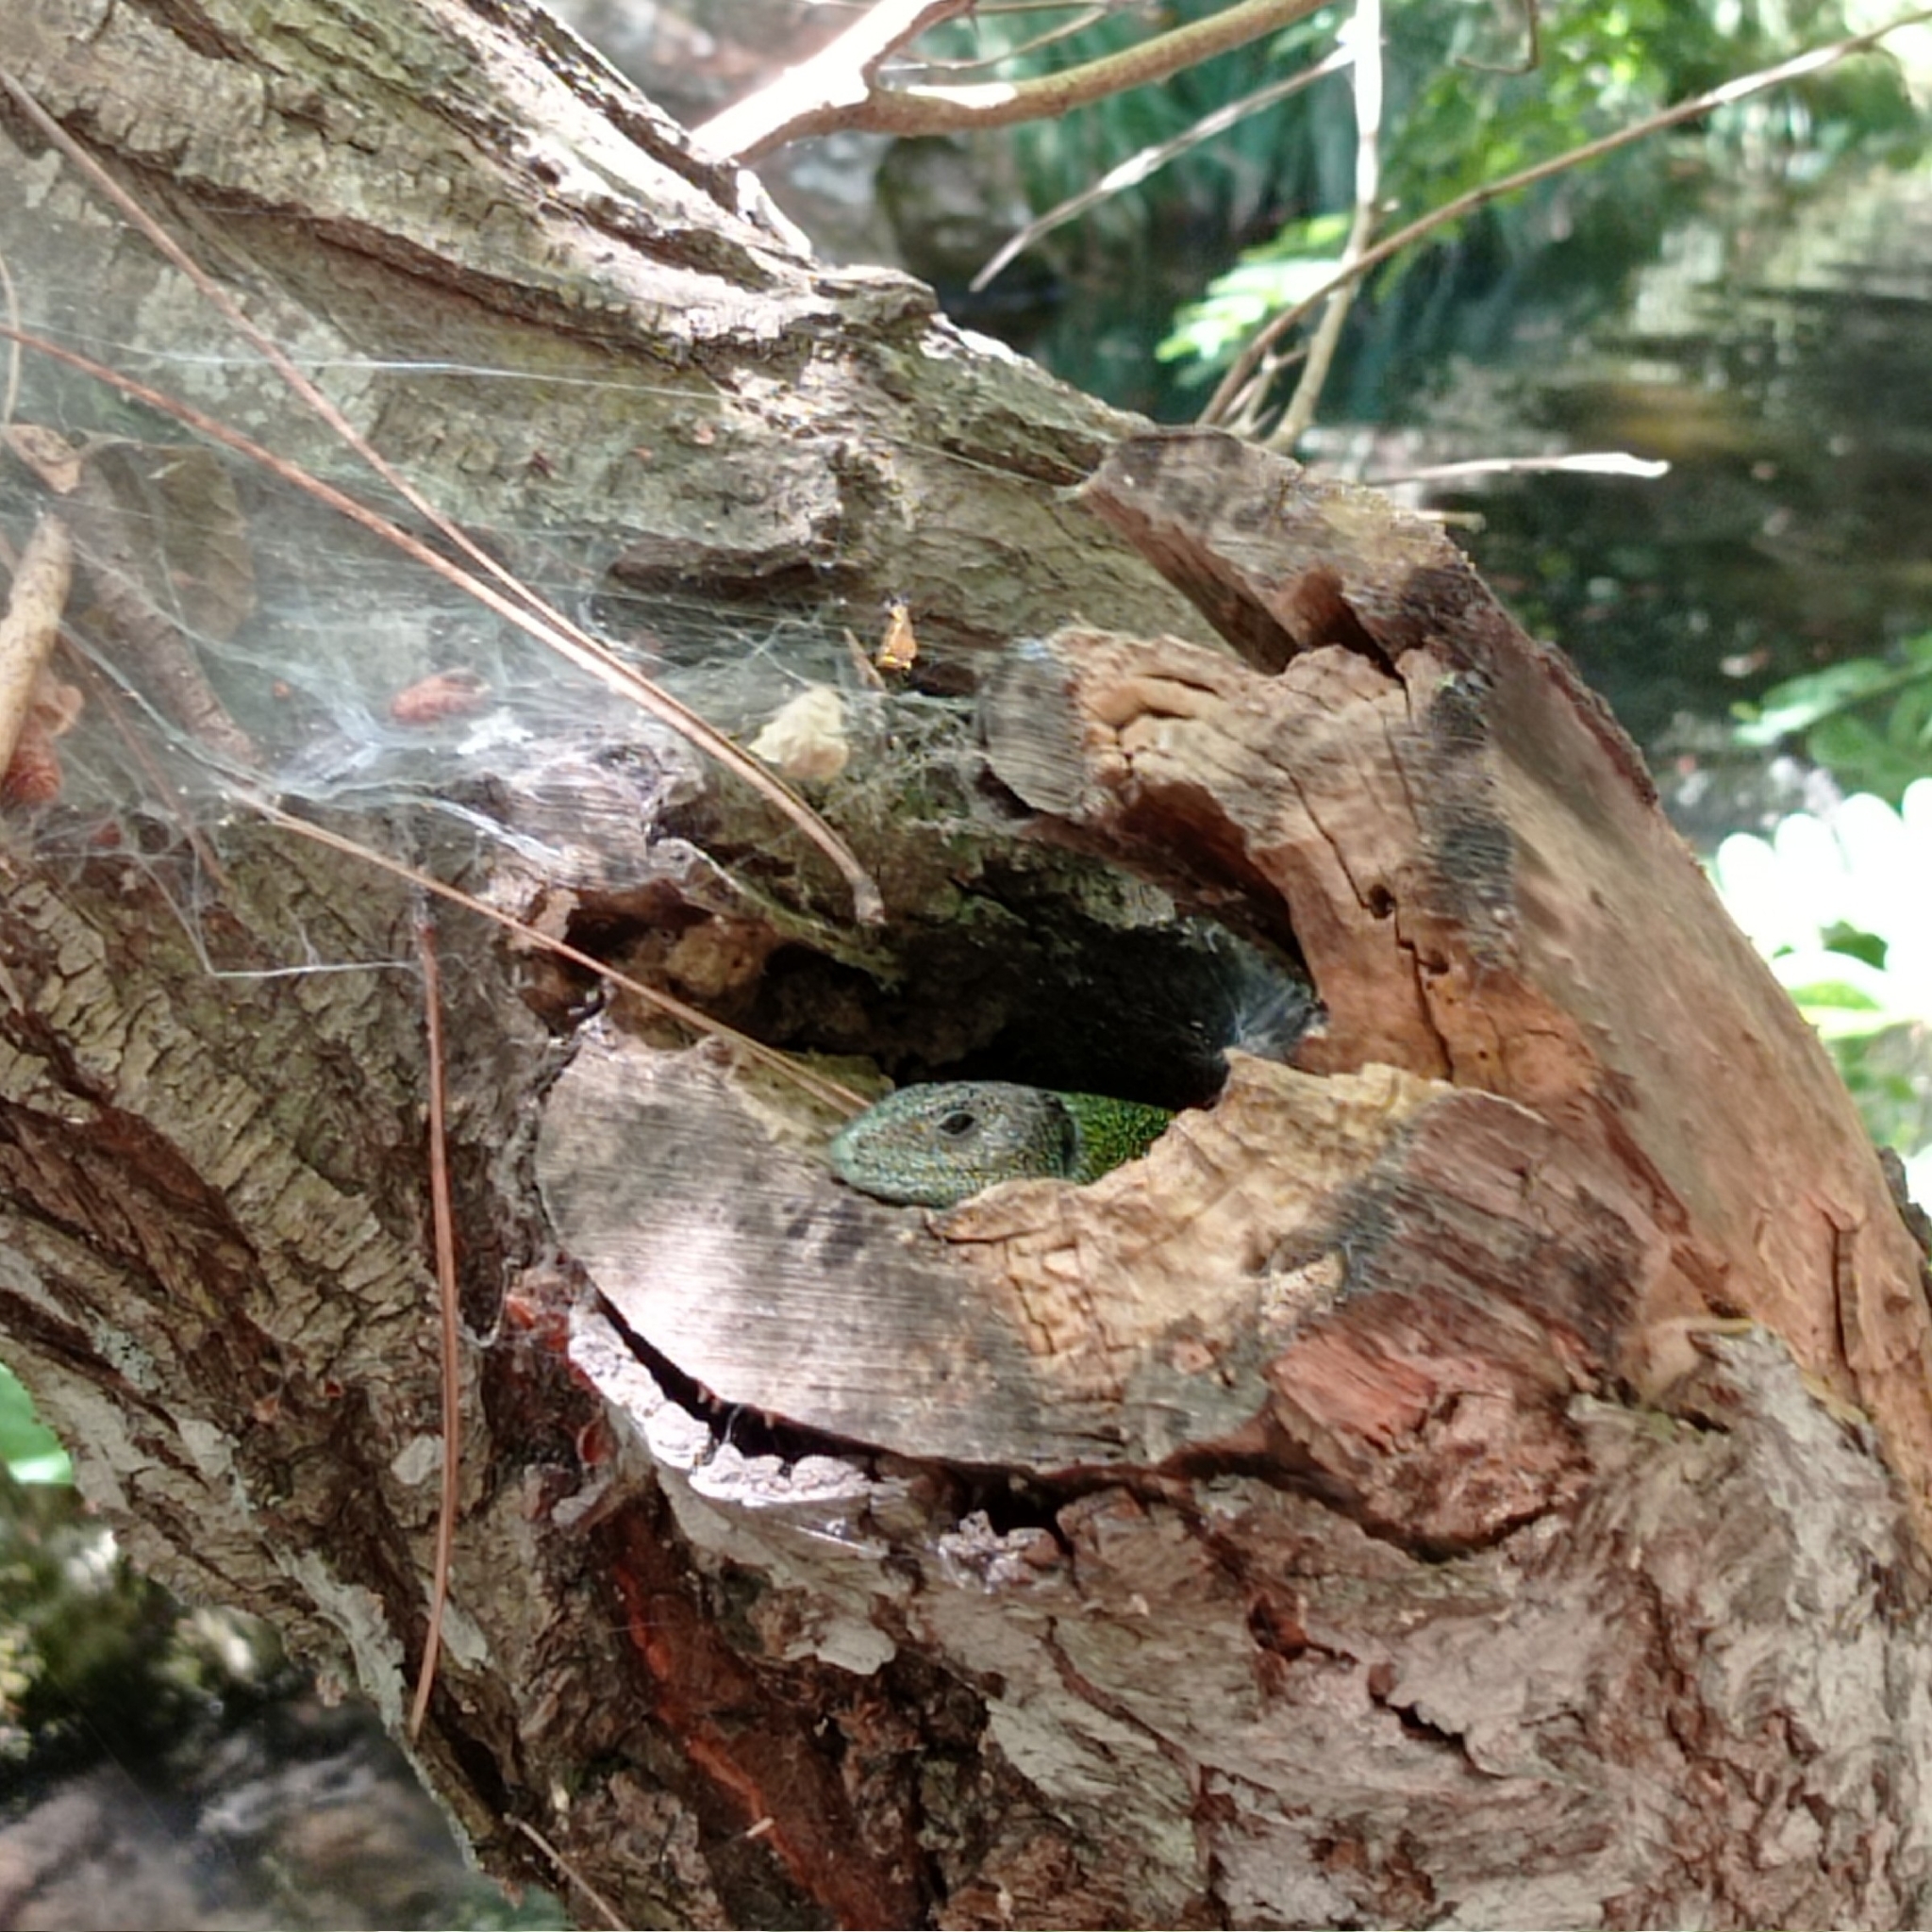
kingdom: Animalia
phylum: Chordata
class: Squamata
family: Lacertidae
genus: Lacerta
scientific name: Lacerta schreiberi
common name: Iberian emerald lizard
